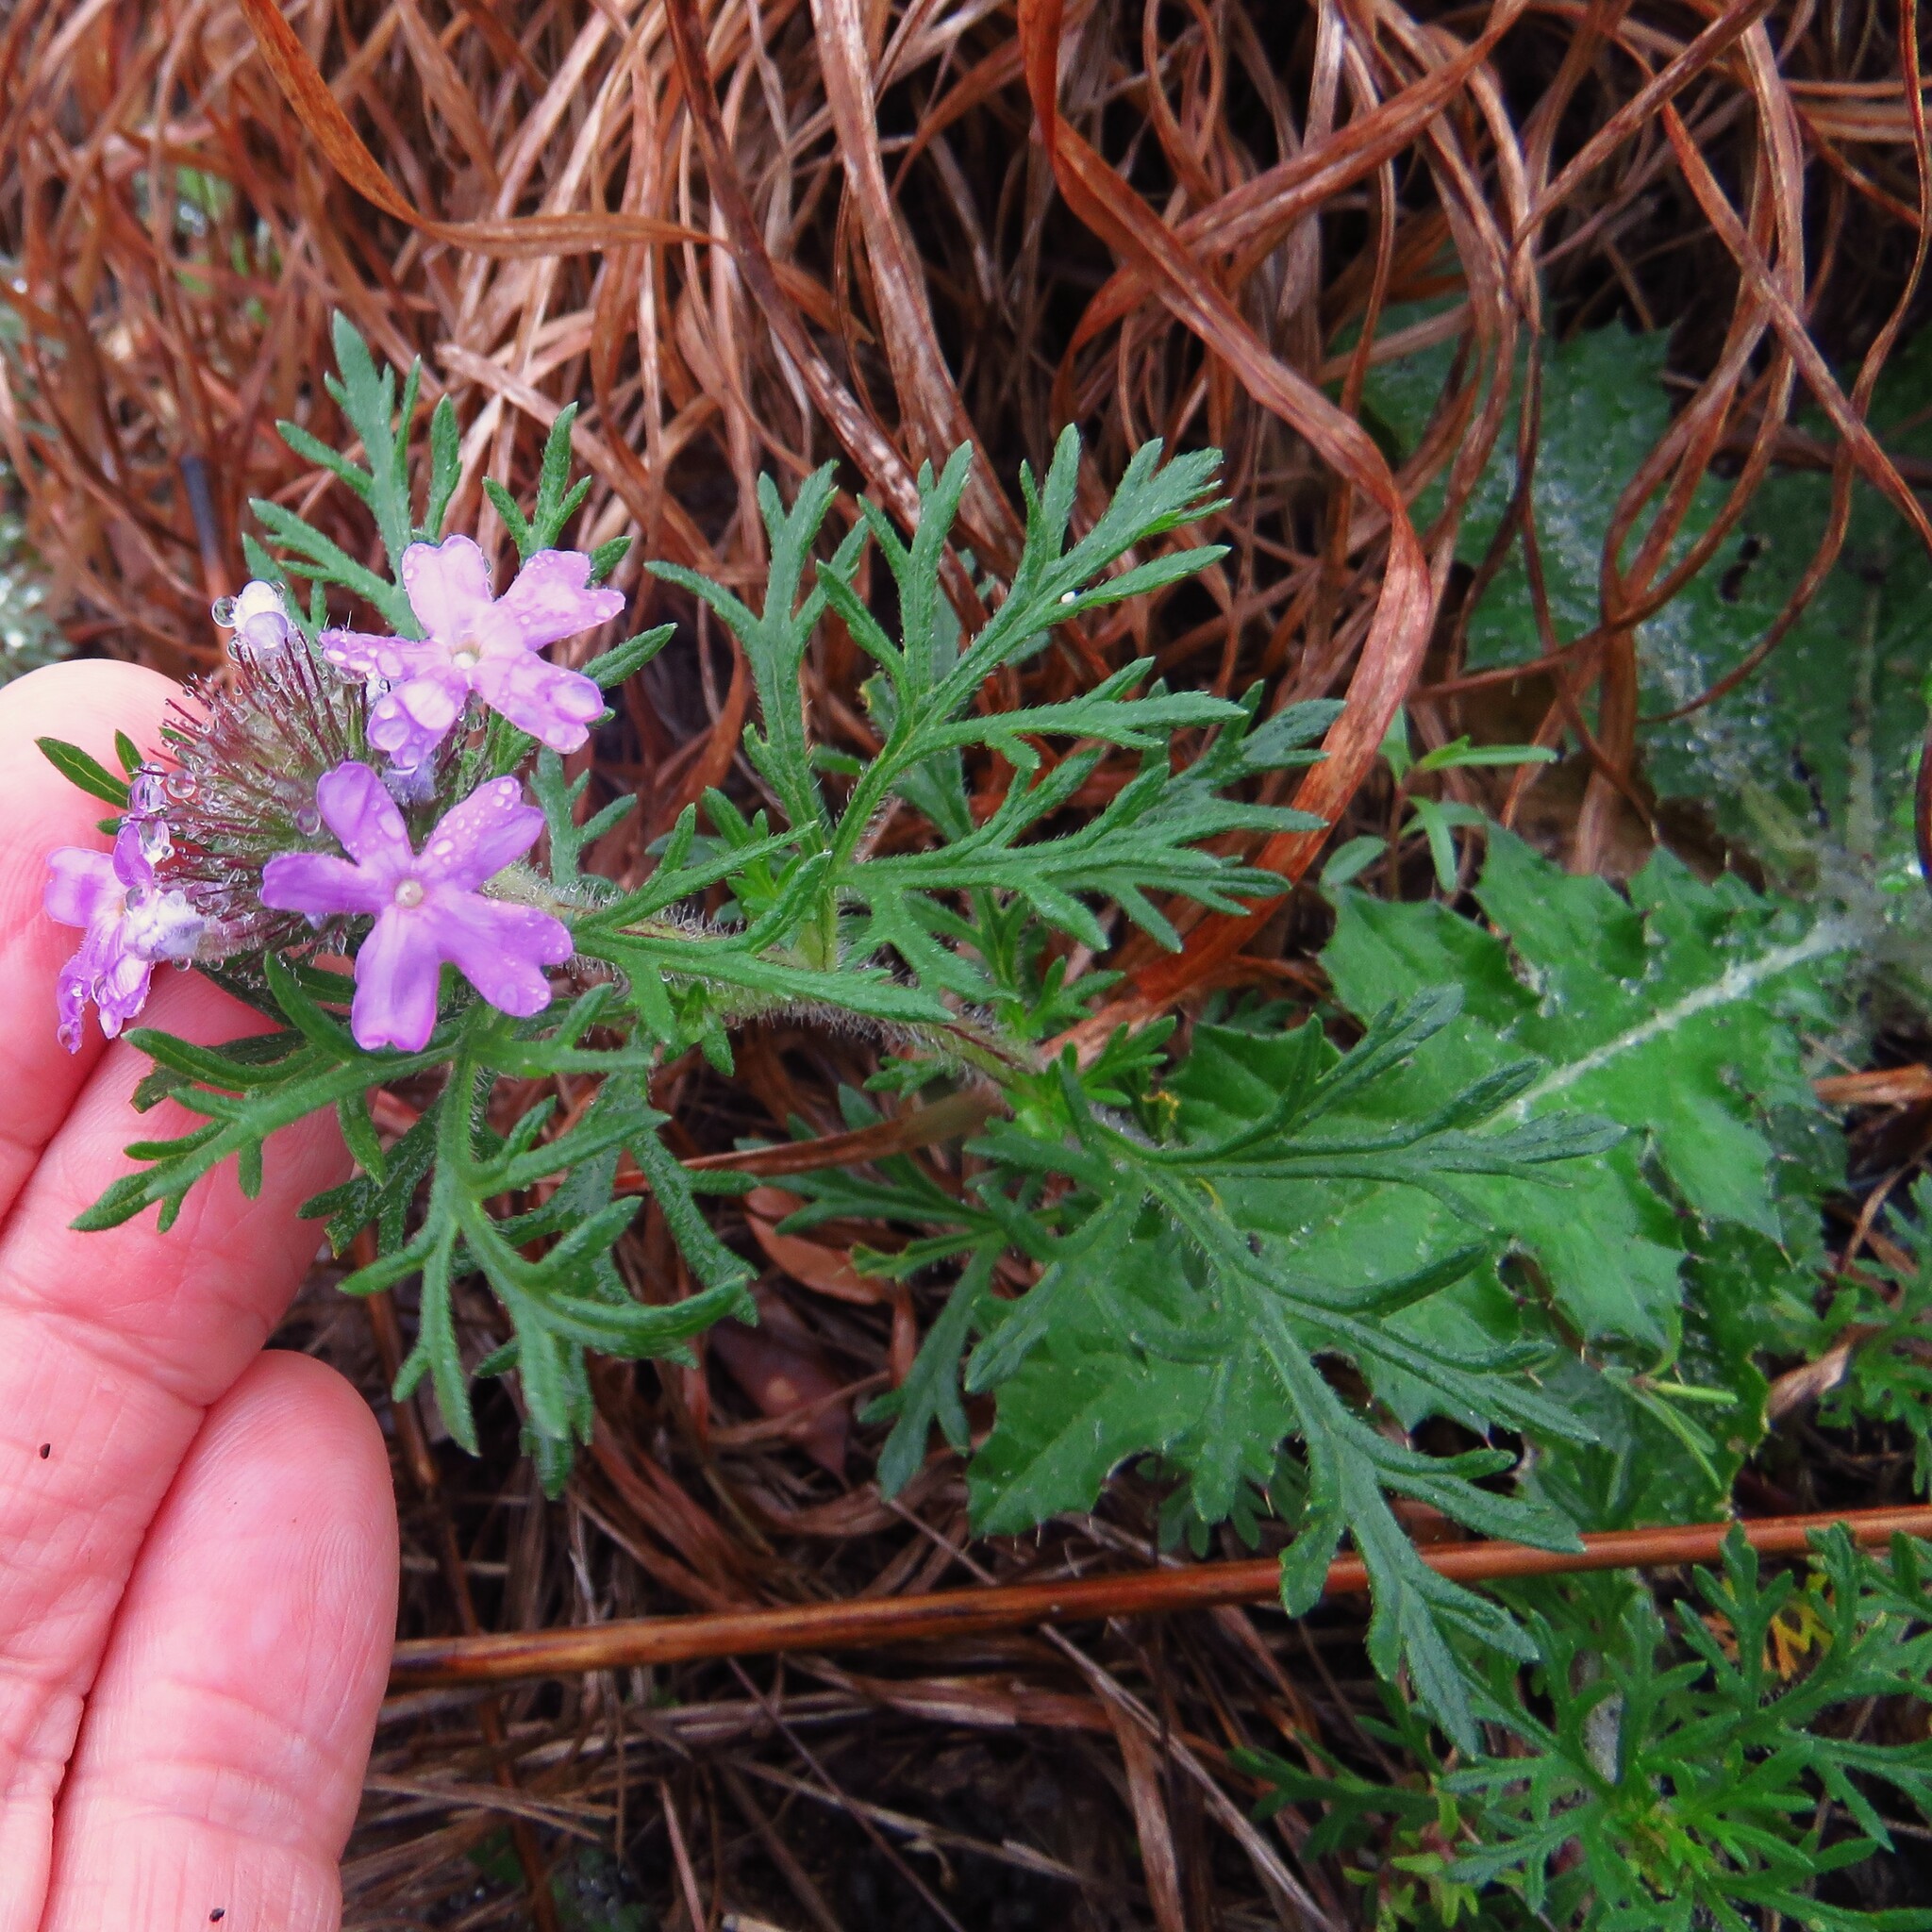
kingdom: Plantae
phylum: Tracheophyta
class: Magnoliopsida
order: Lamiales
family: Verbenaceae
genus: Verbena
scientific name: Verbena bipinnatifida
